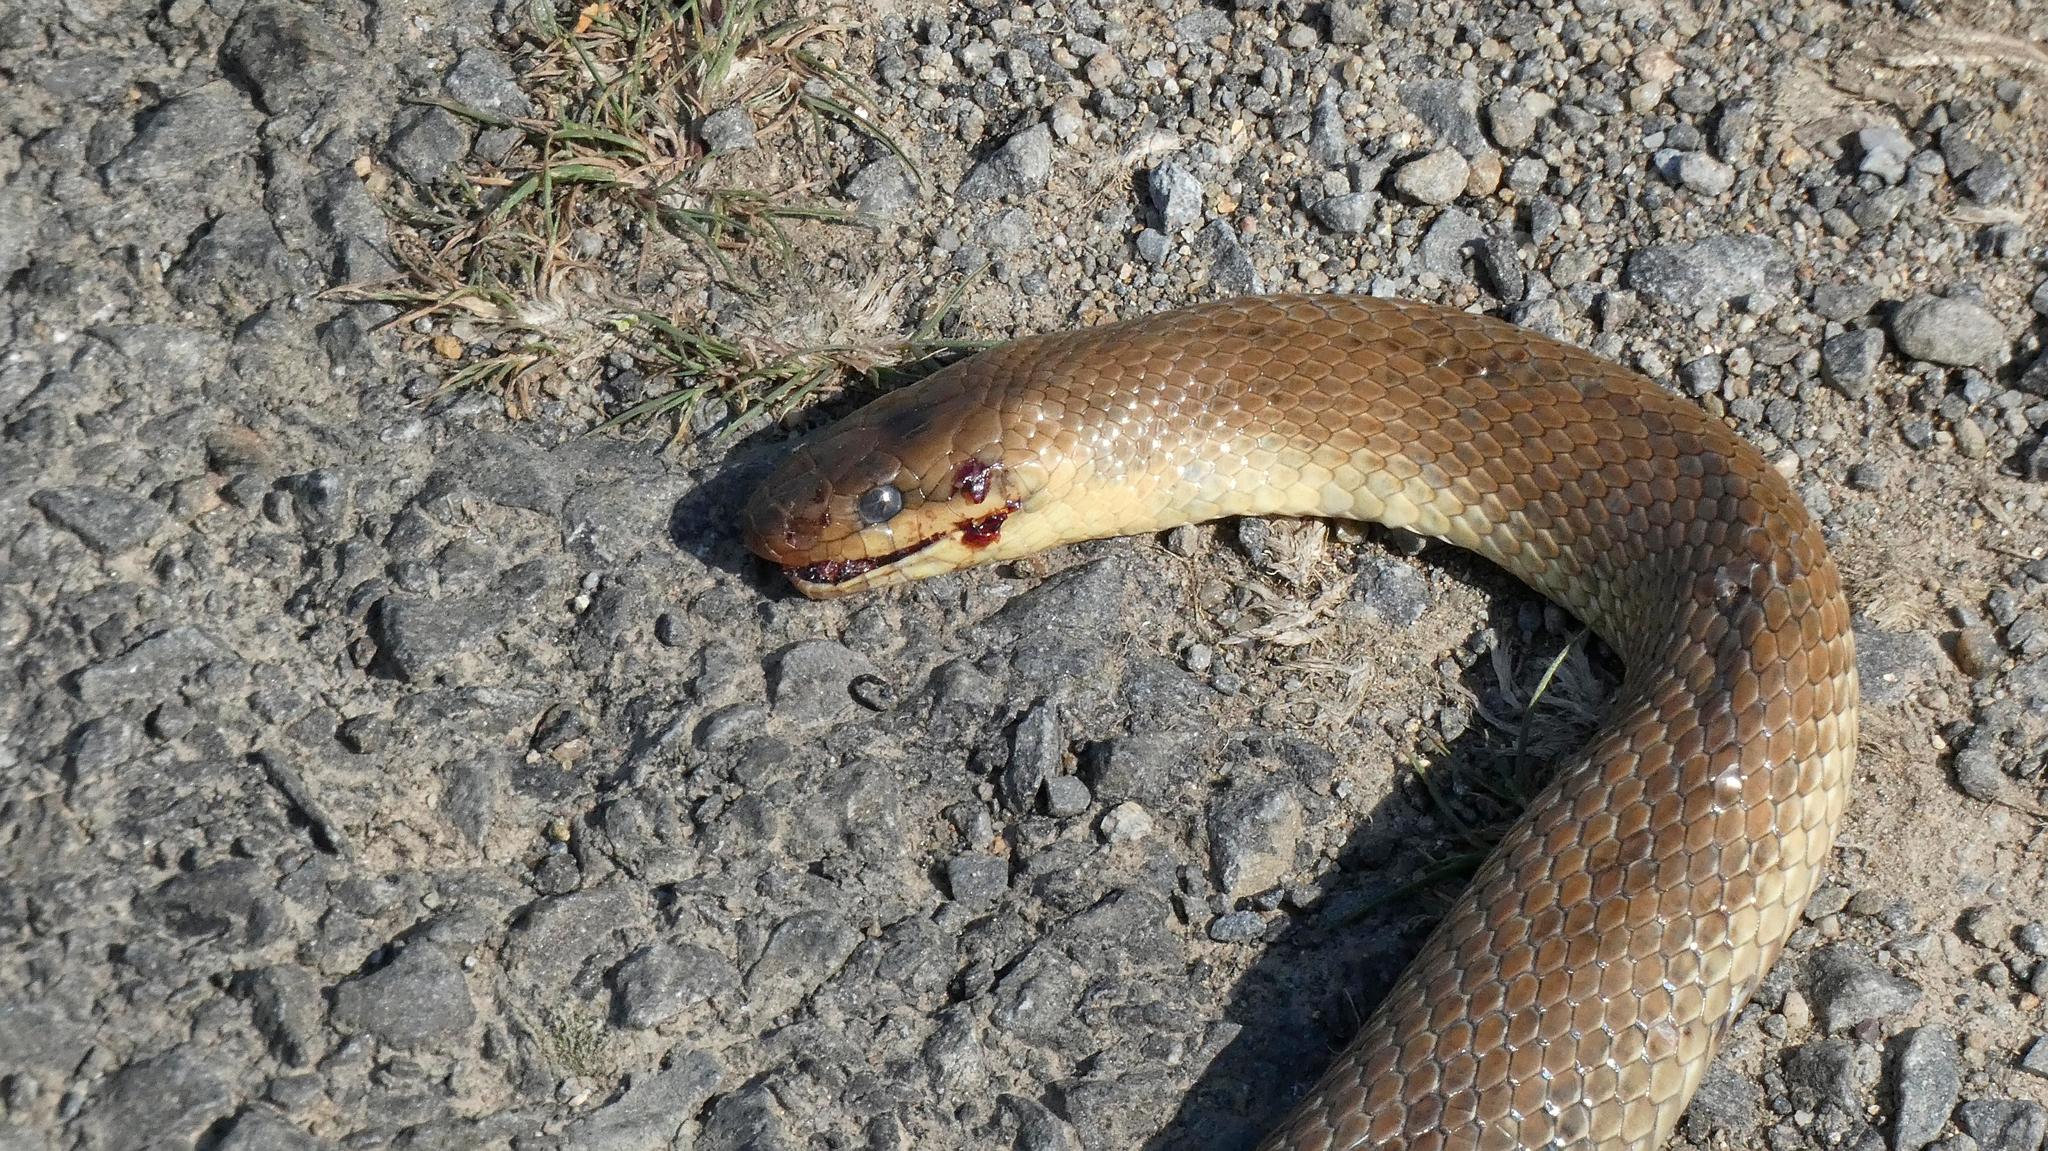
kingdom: Animalia
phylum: Chordata
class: Squamata
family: Colubridae
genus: Zamenis
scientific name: Zamenis longissimus
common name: Aesculapean snake
